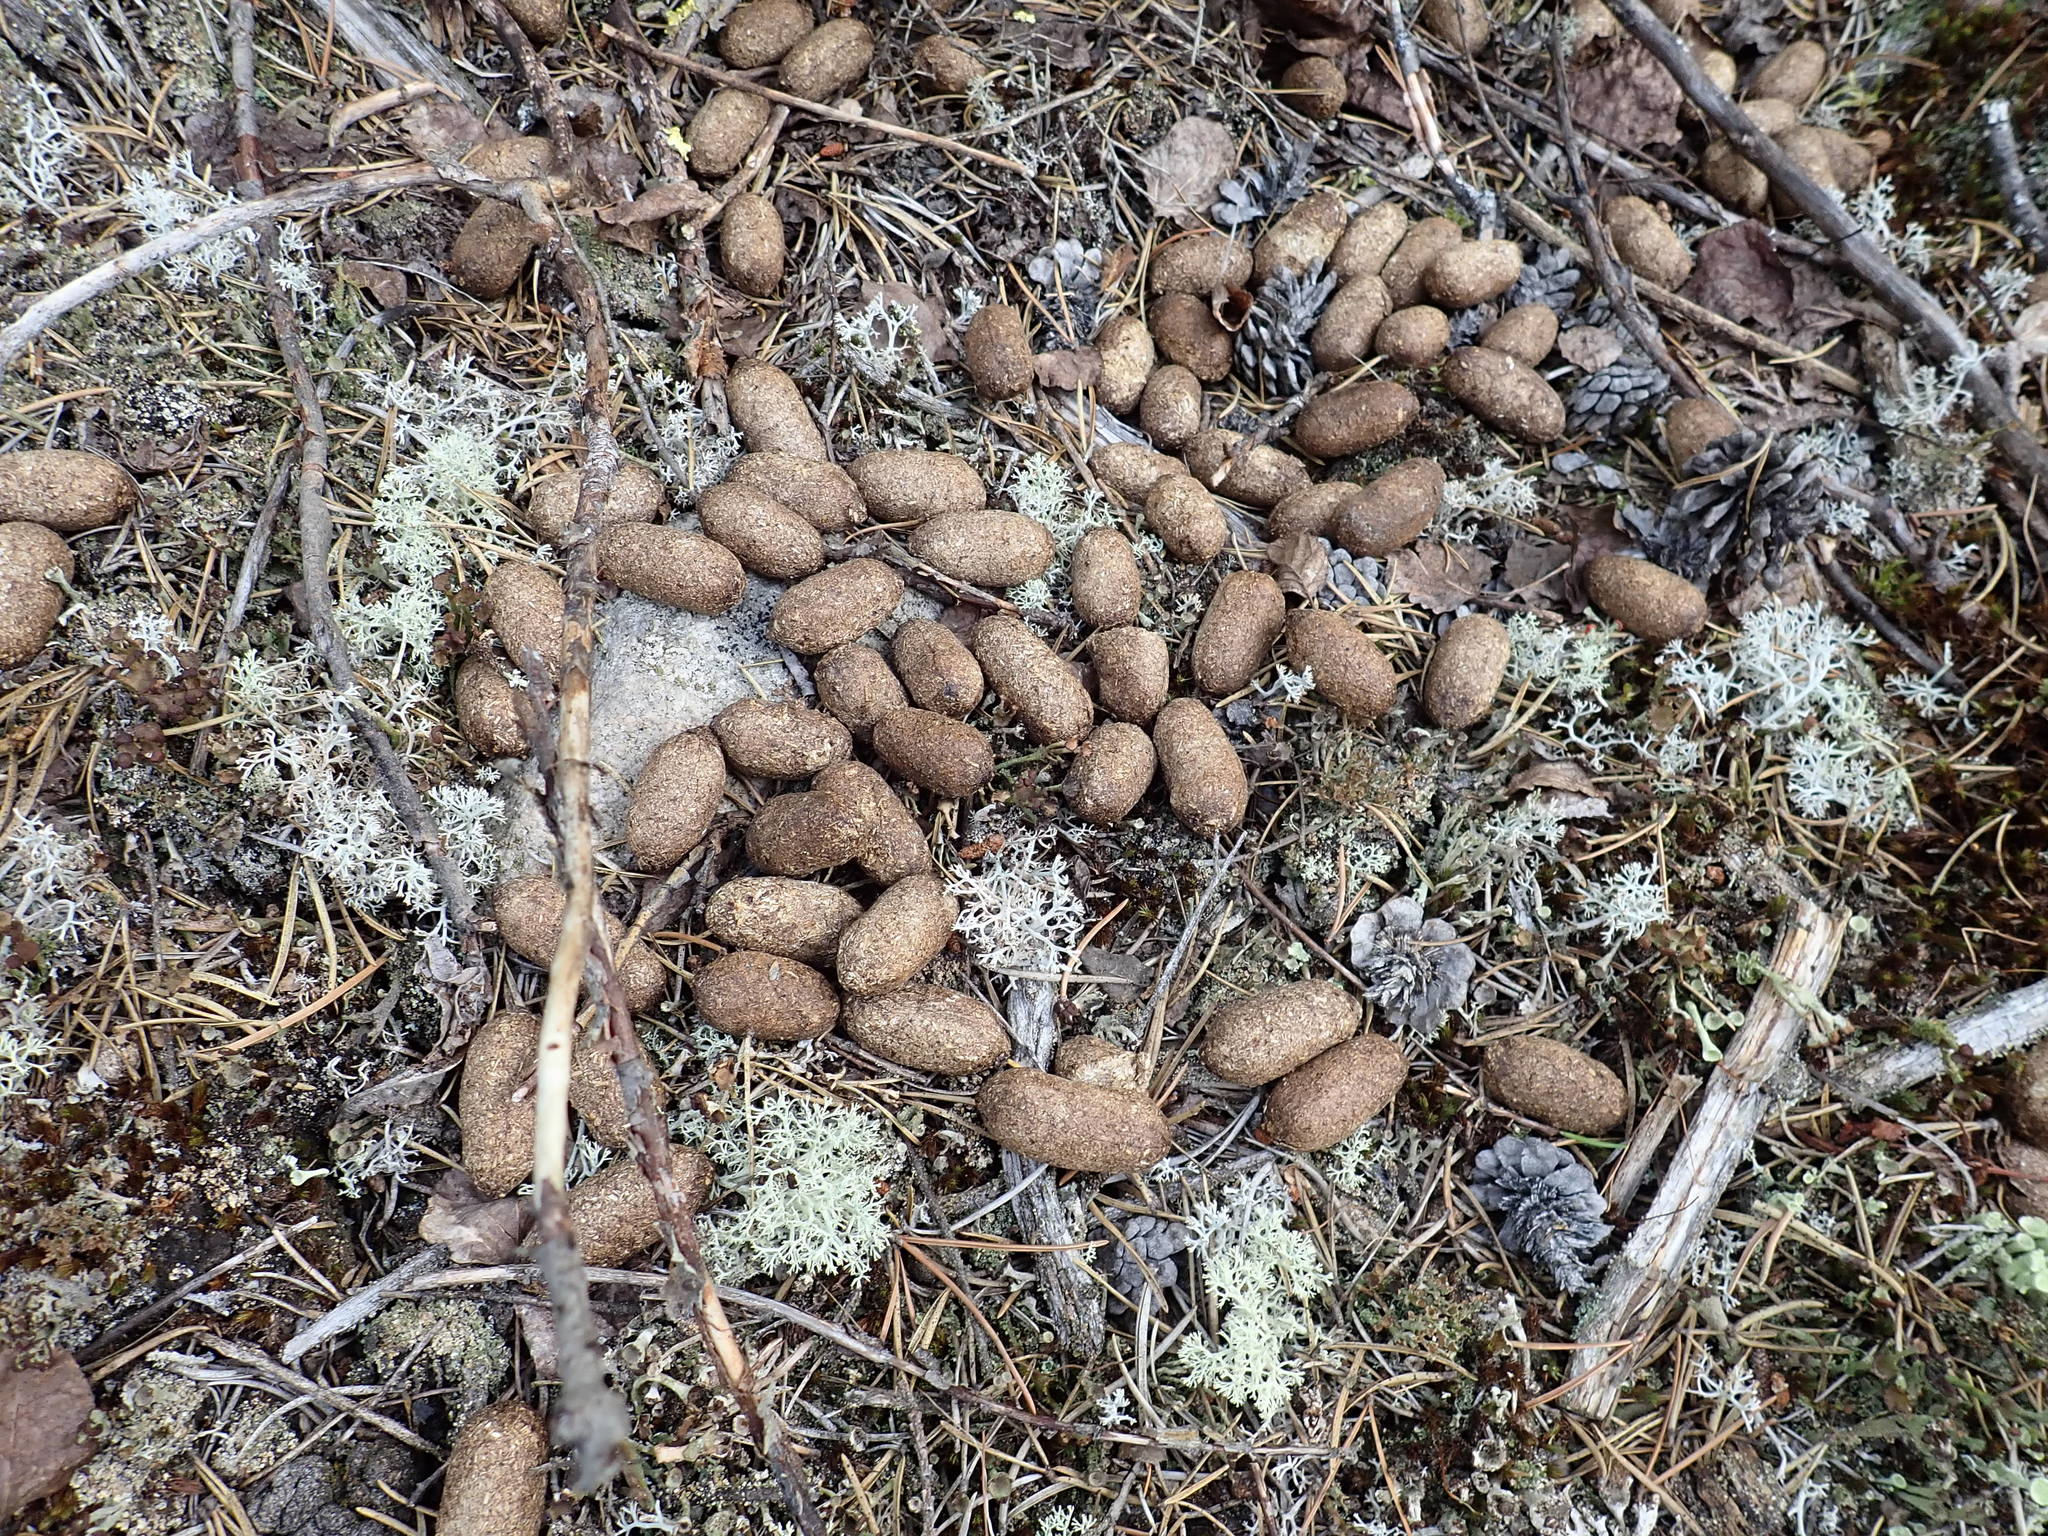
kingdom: Animalia
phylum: Chordata
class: Mammalia
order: Artiodactyla
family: Cervidae
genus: Alces
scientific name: Alces alces
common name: Moose
